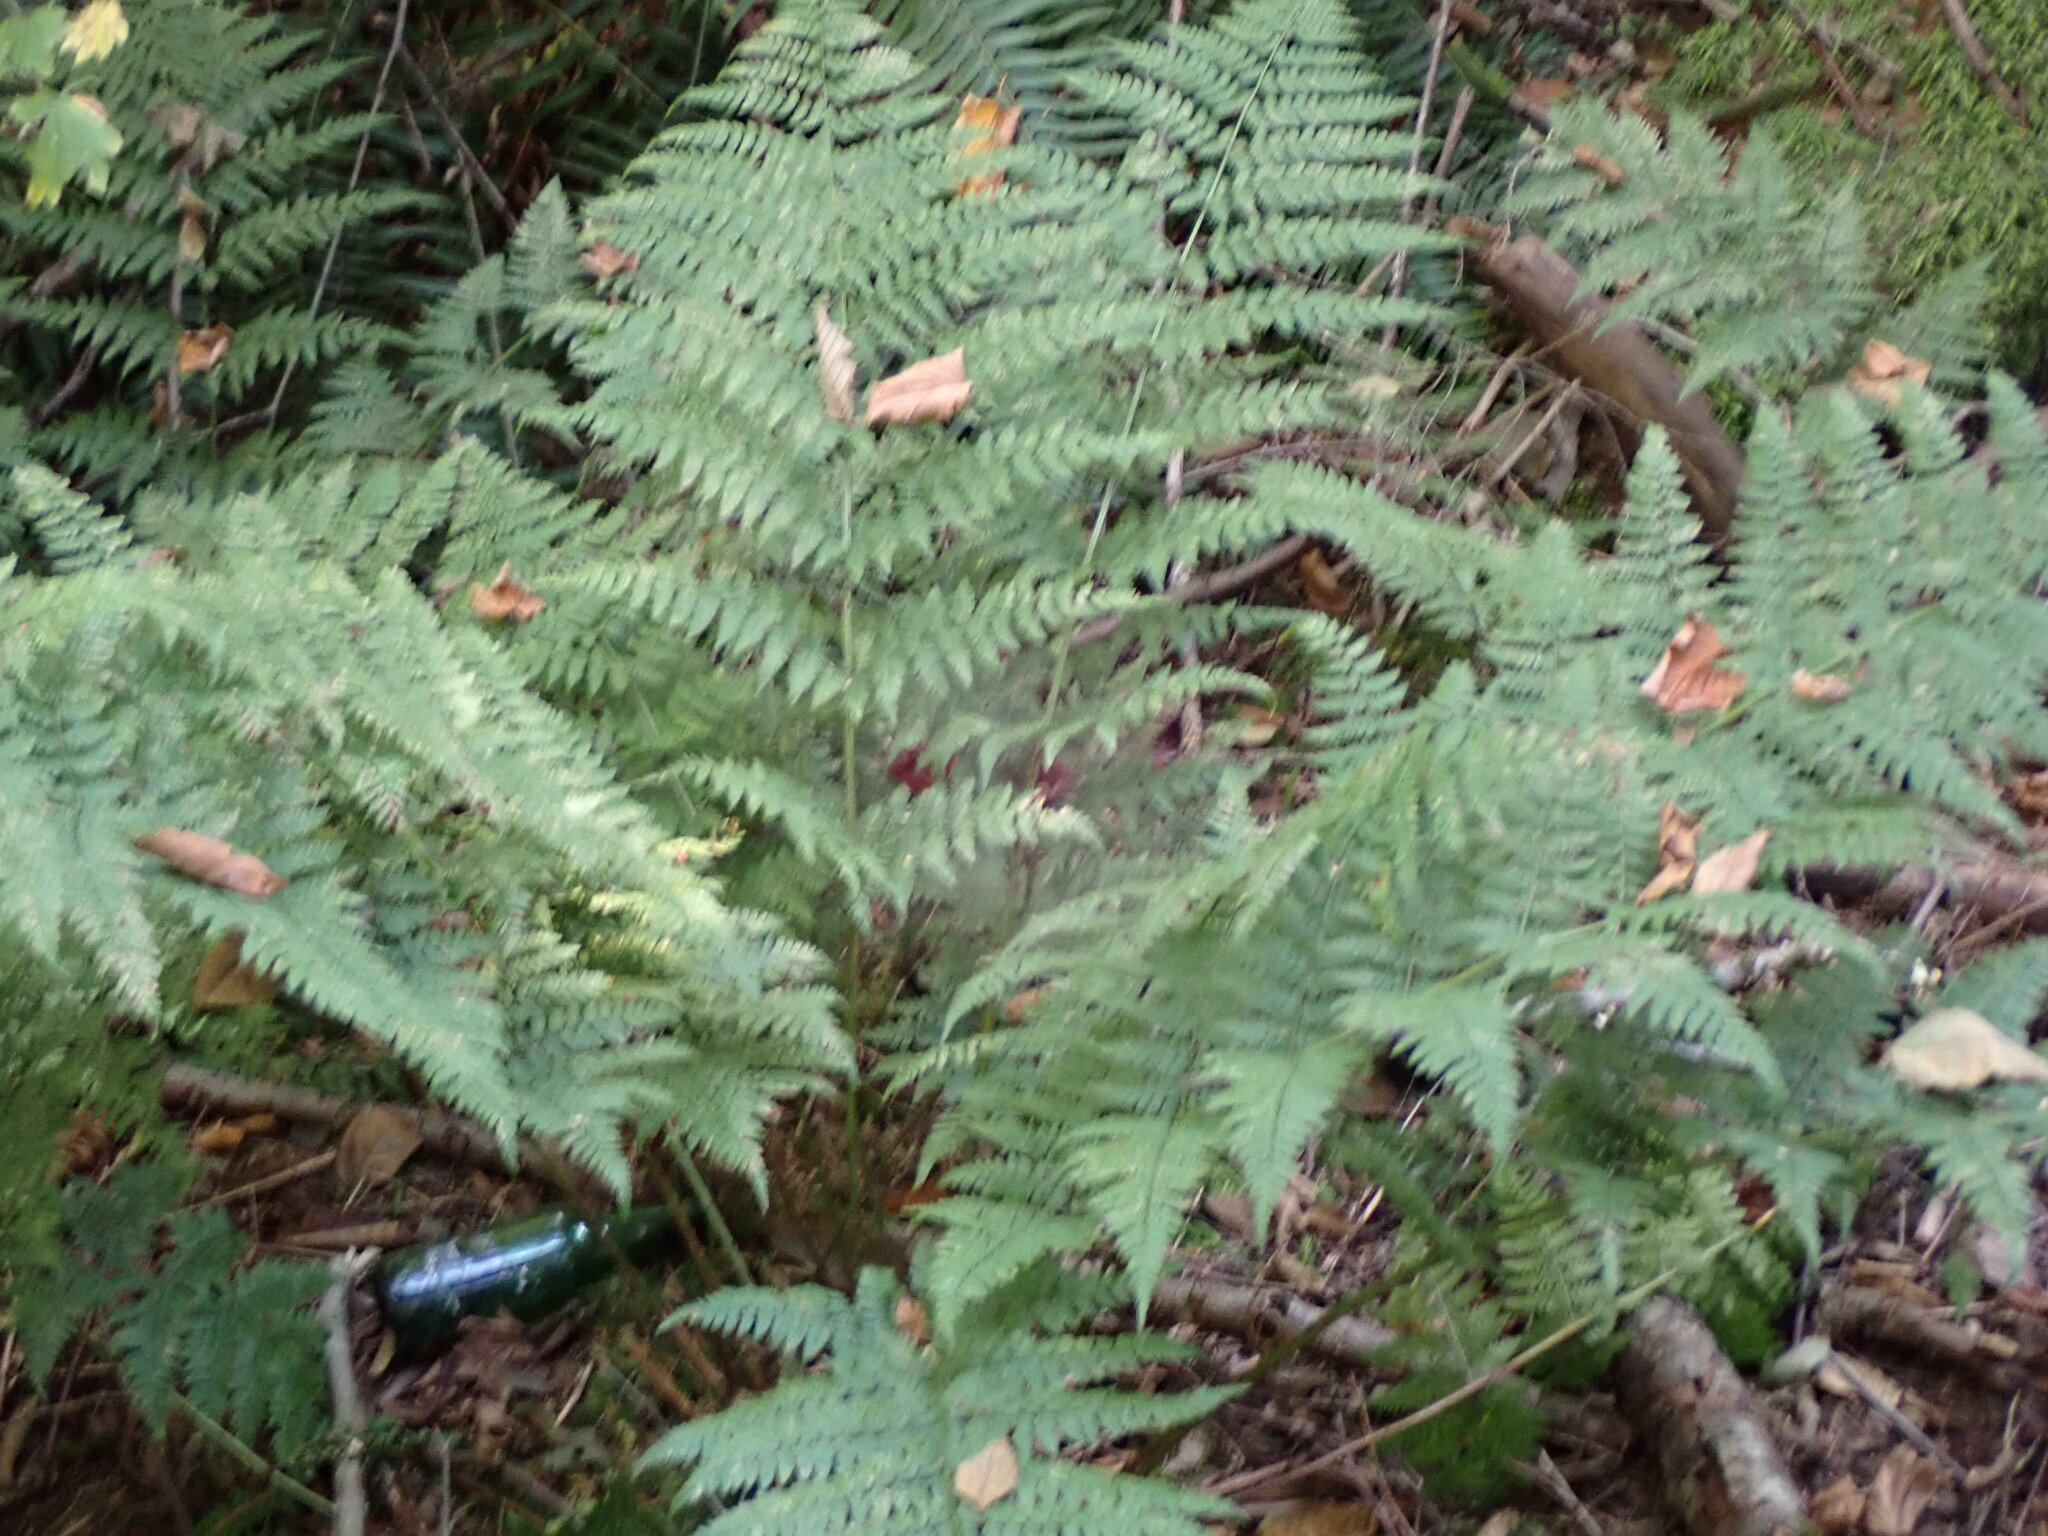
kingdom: Plantae
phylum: Tracheophyta
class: Polypodiopsida
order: Polypodiales
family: Dryopteridaceae
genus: Dryopteris
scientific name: Dryopteris expansa
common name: Northern buckler fern
